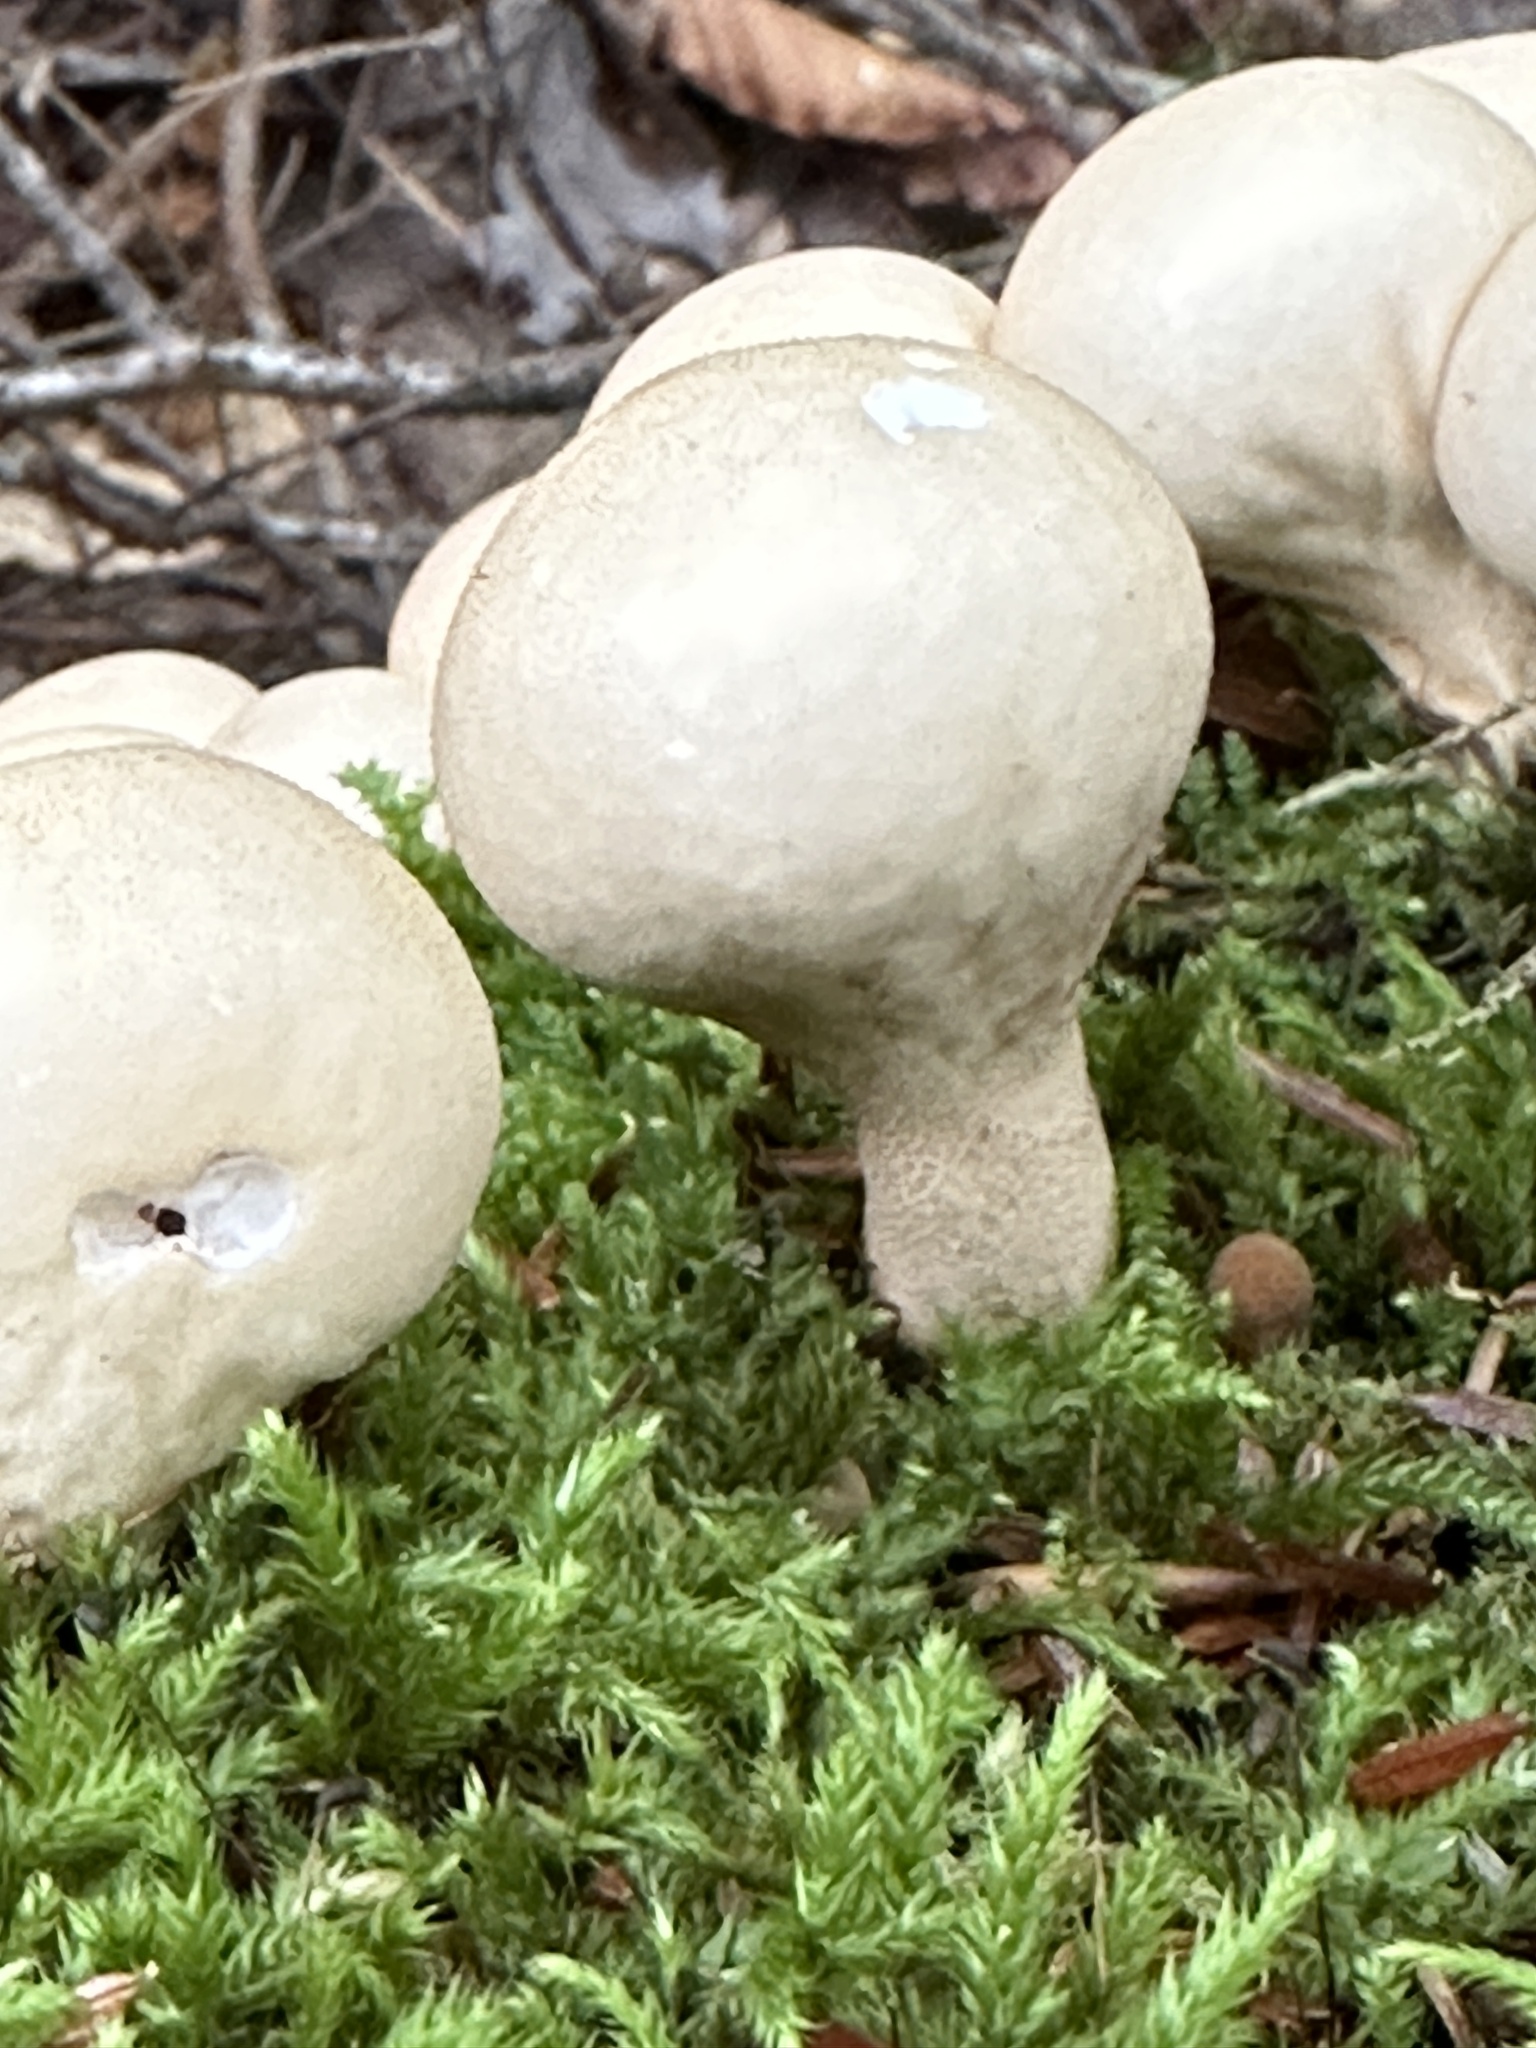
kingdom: Fungi
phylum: Basidiomycota
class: Agaricomycetes
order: Agaricales
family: Lycoperdaceae
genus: Apioperdon
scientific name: Apioperdon pyriforme
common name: Pear-shaped puffball
